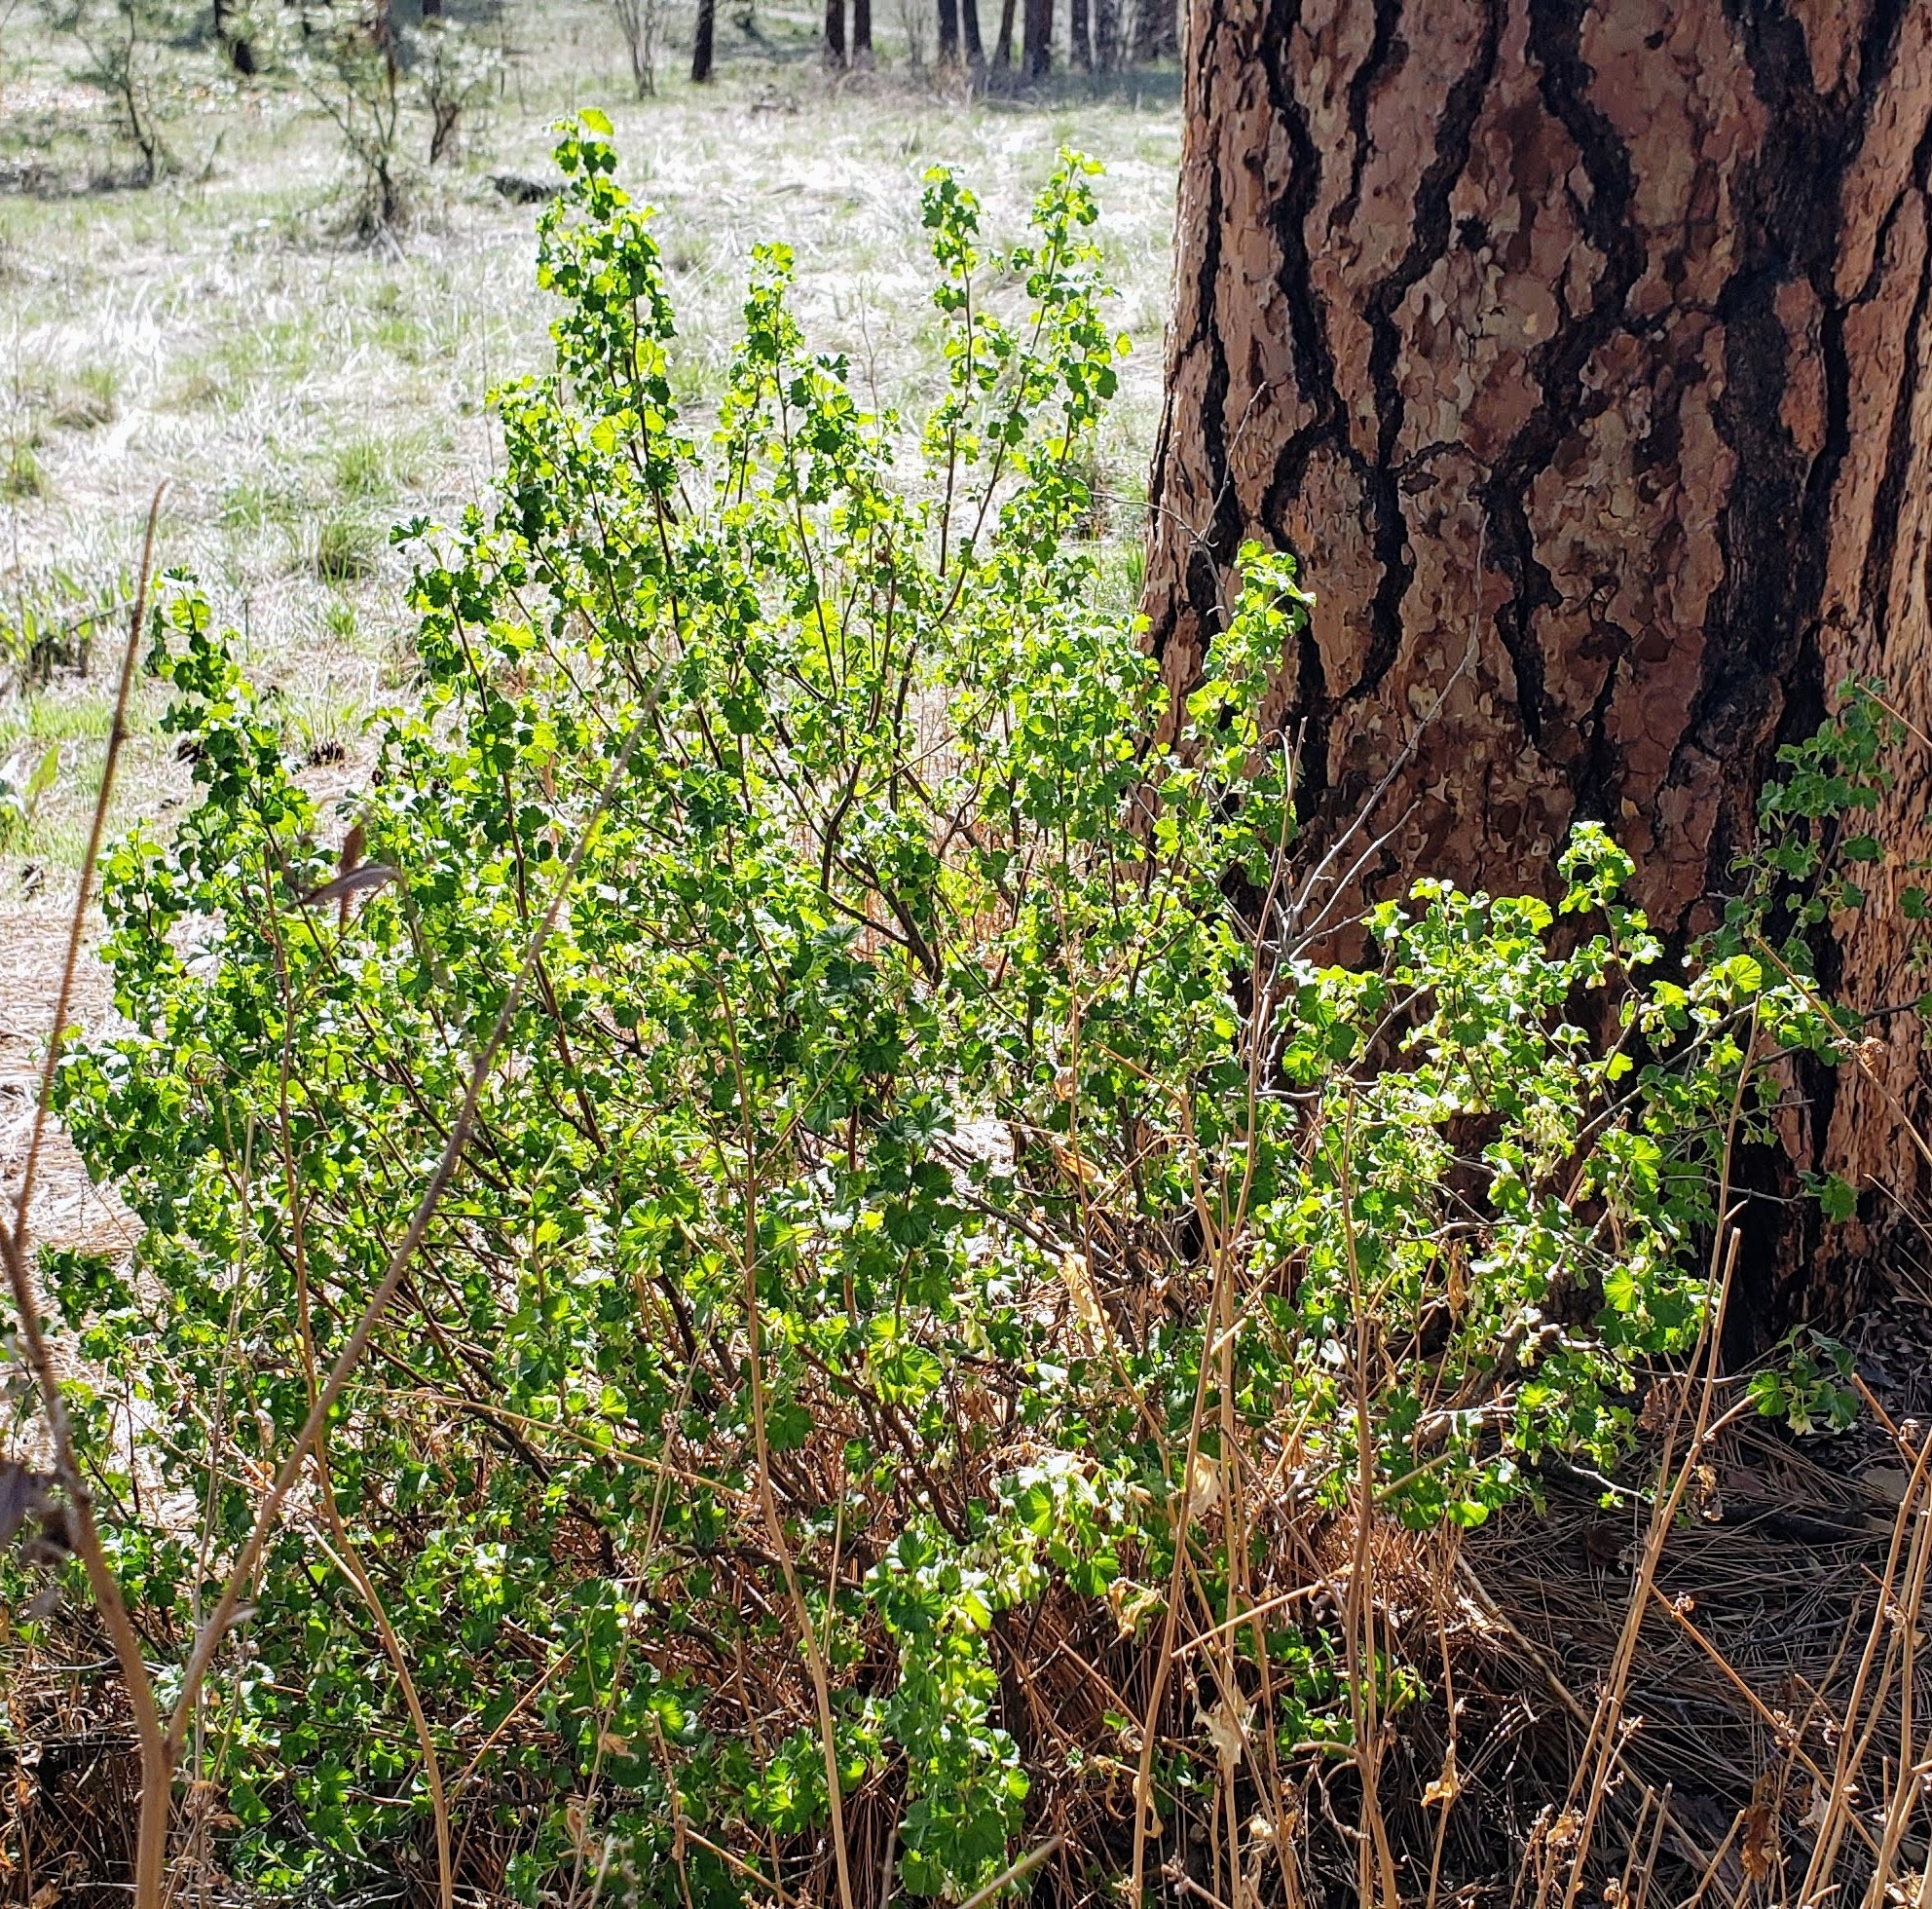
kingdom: Plantae
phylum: Tracheophyta
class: Magnoliopsida
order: Saxifragales
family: Grossulariaceae
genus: Ribes
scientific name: Ribes cereum
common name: Wax currant
